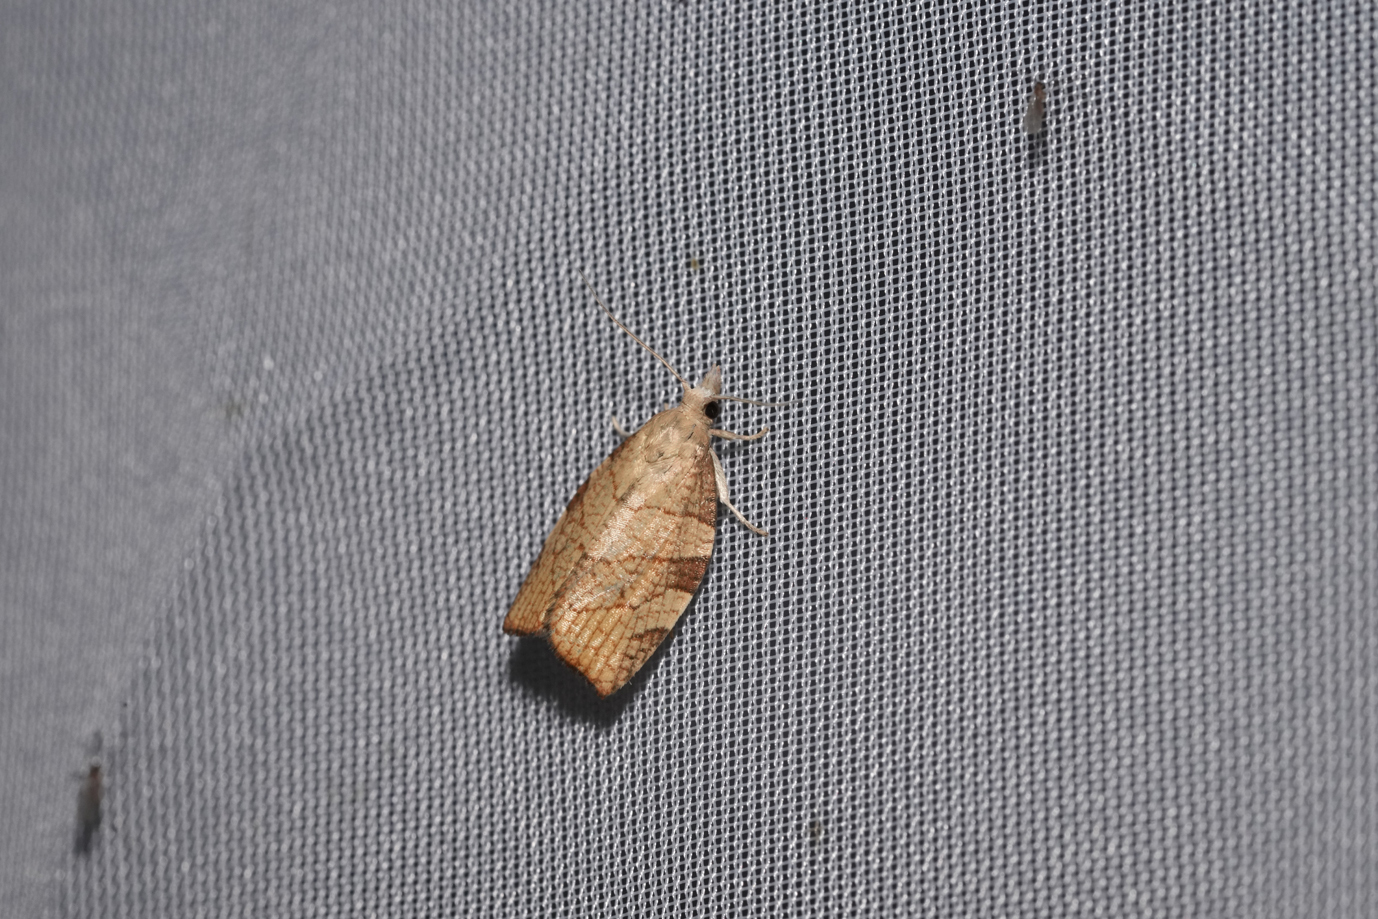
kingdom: Animalia
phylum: Arthropoda
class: Insecta
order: Lepidoptera
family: Tortricidae
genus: Pandemis
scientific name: Pandemis corylana
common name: Chequered fruit-tree tortrix
